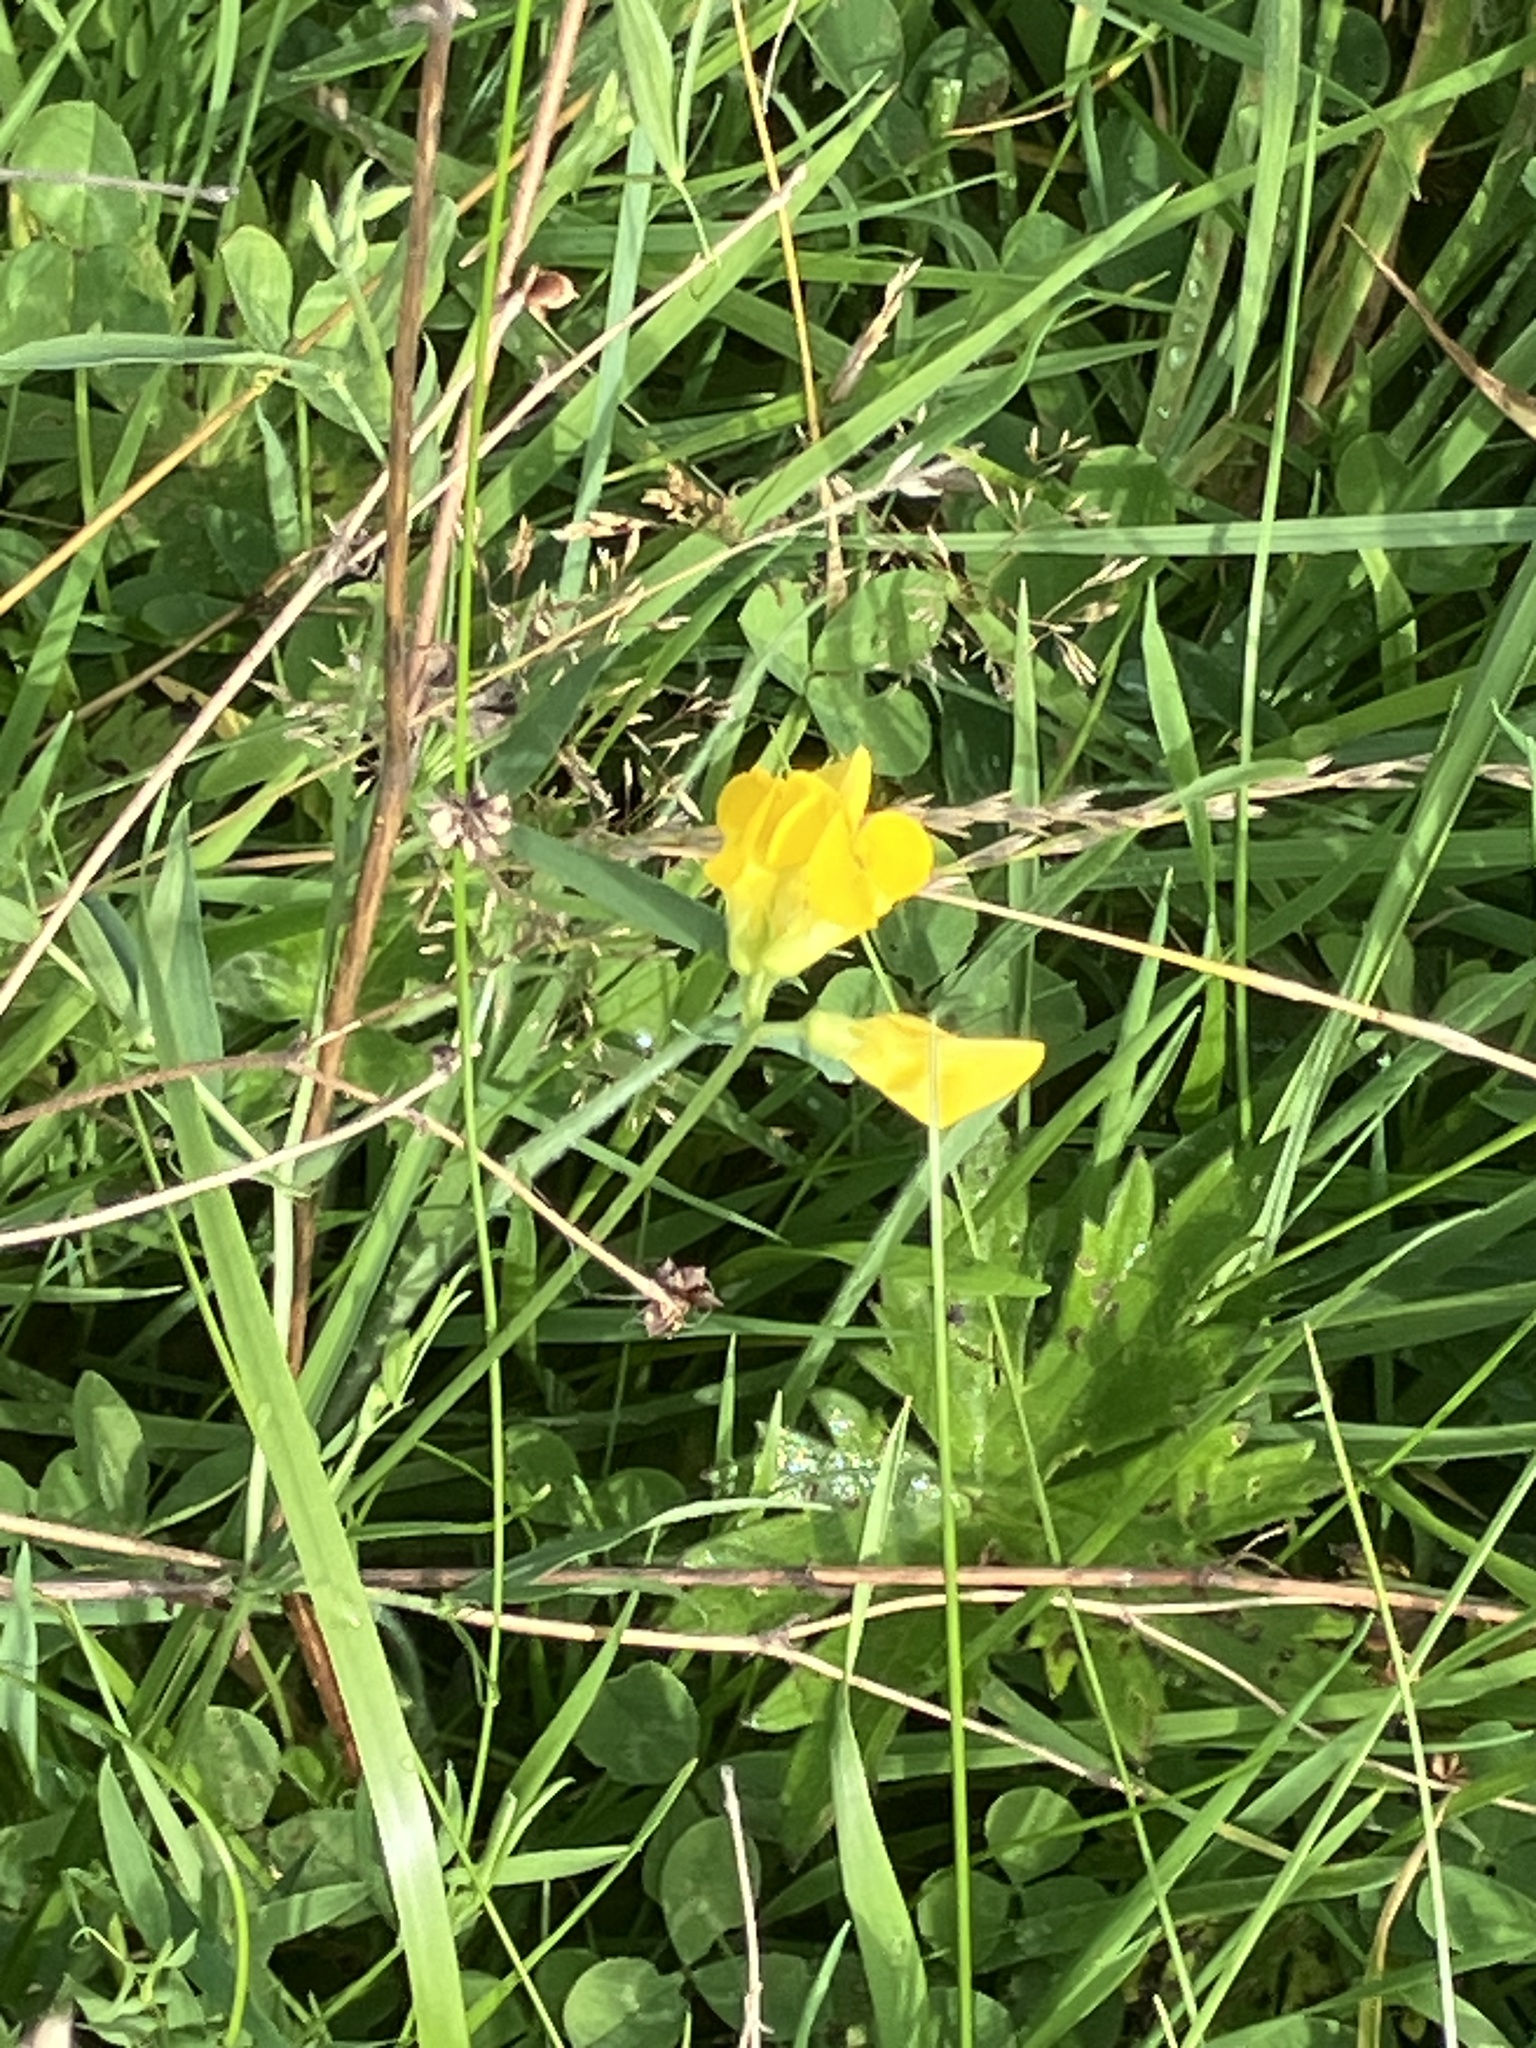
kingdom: Plantae
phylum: Tracheophyta
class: Magnoliopsida
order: Fabales
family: Fabaceae
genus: Lathyrus
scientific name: Lathyrus pratensis
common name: Meadow vetchling
